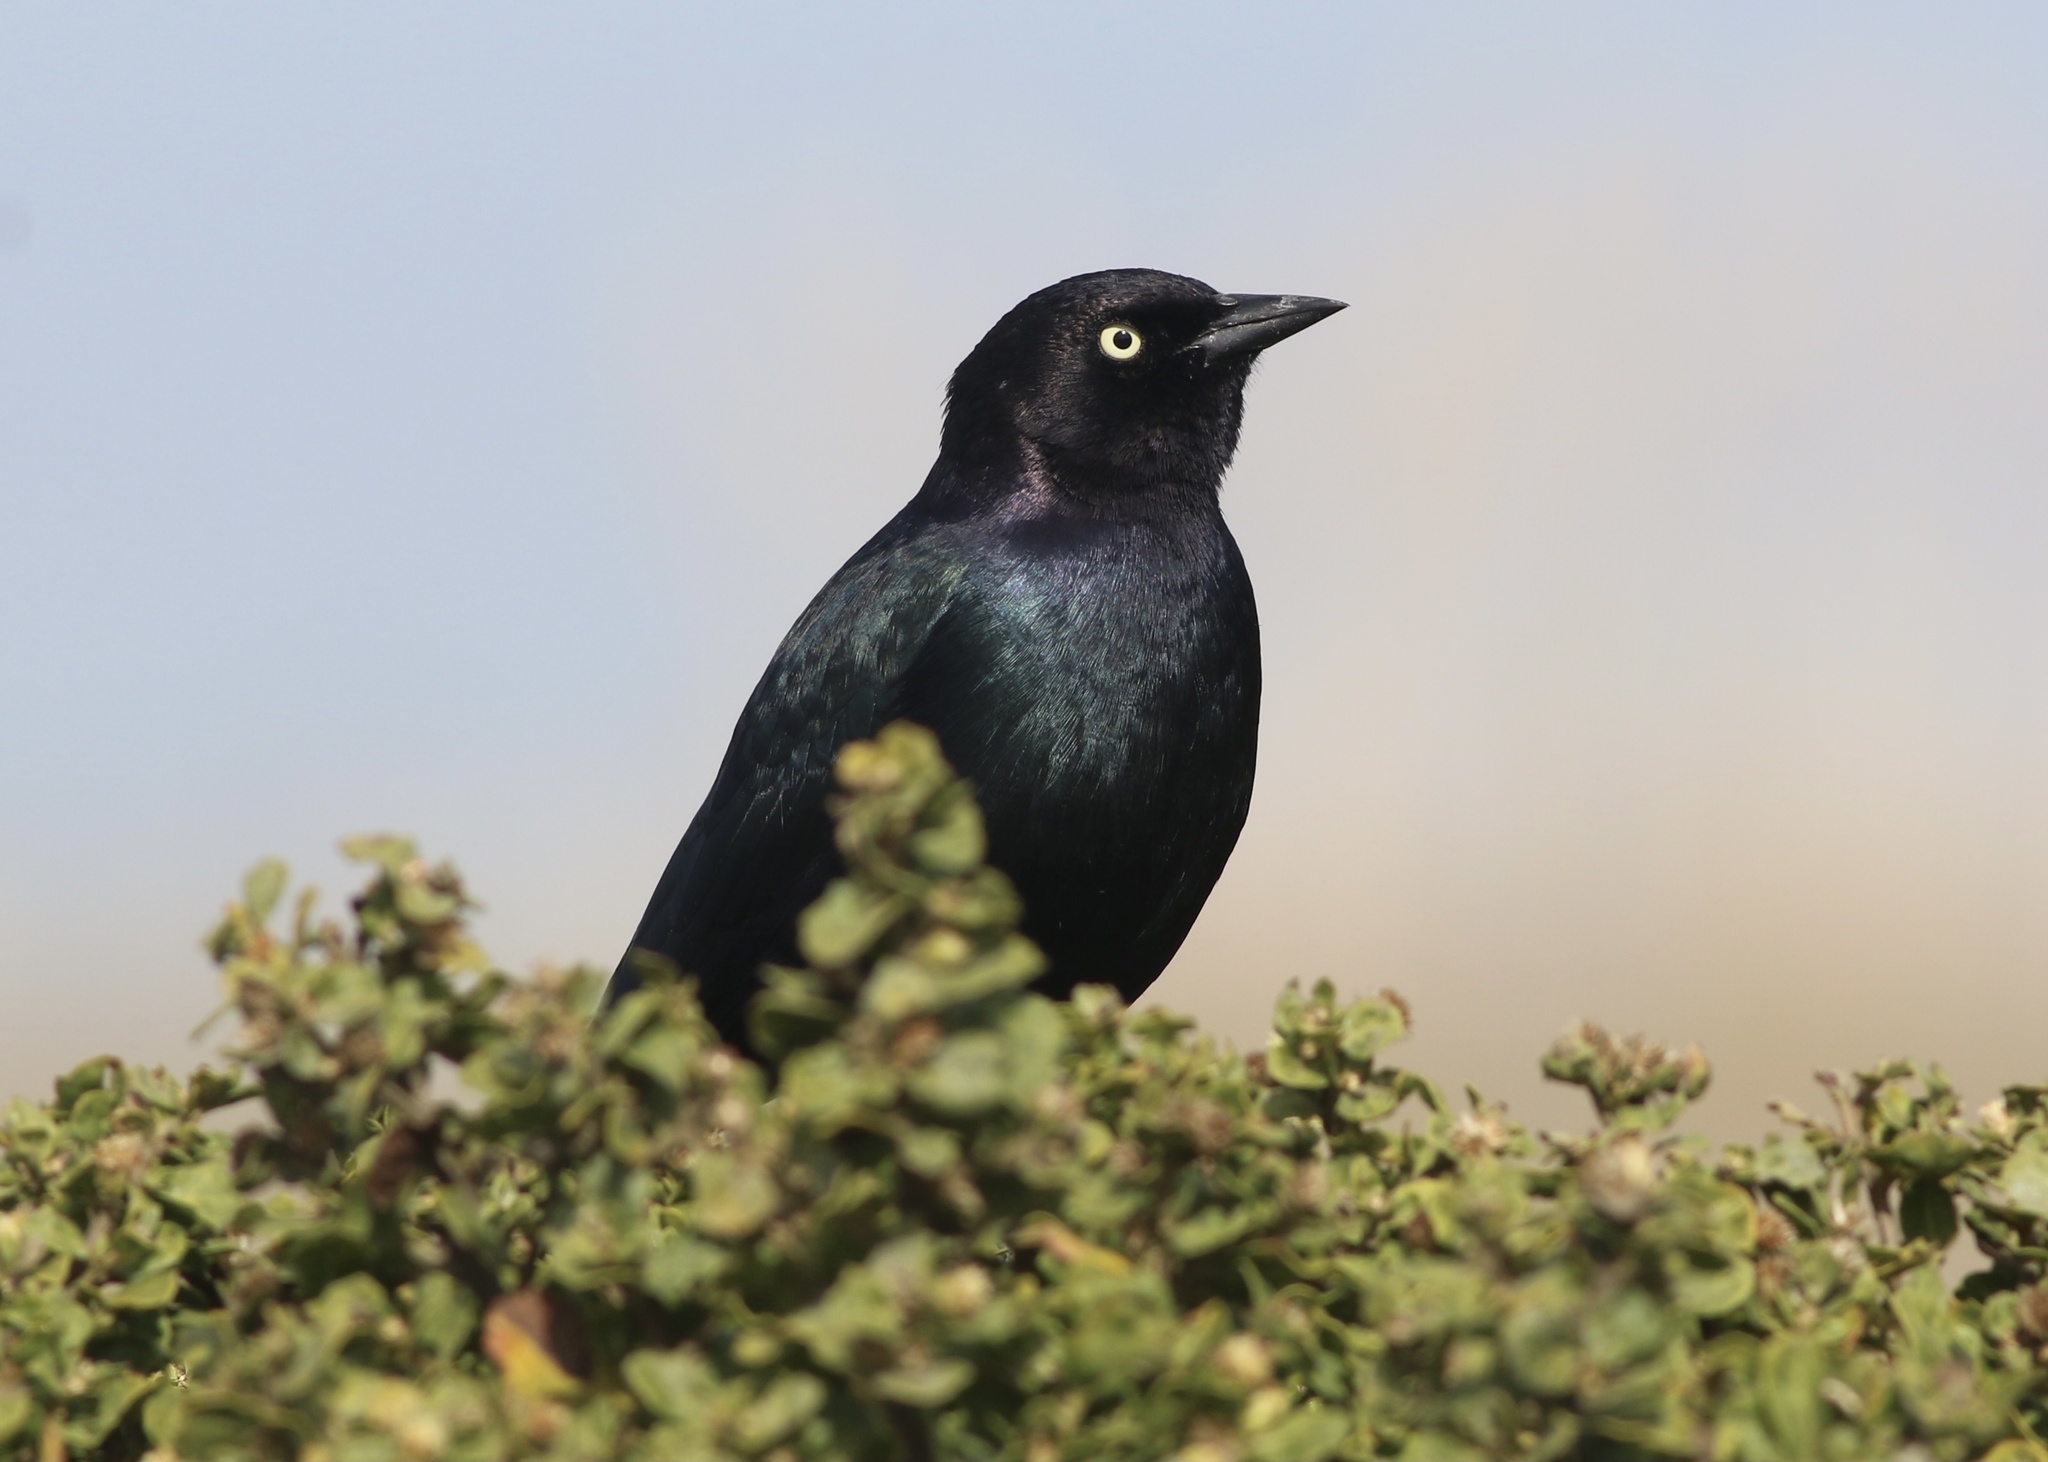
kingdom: Animalia
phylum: Chordata
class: Aves
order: Passeriformes
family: Icteridae
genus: Euphagus
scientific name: Euphagus cyanocephalus
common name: Brewer's blackbird
